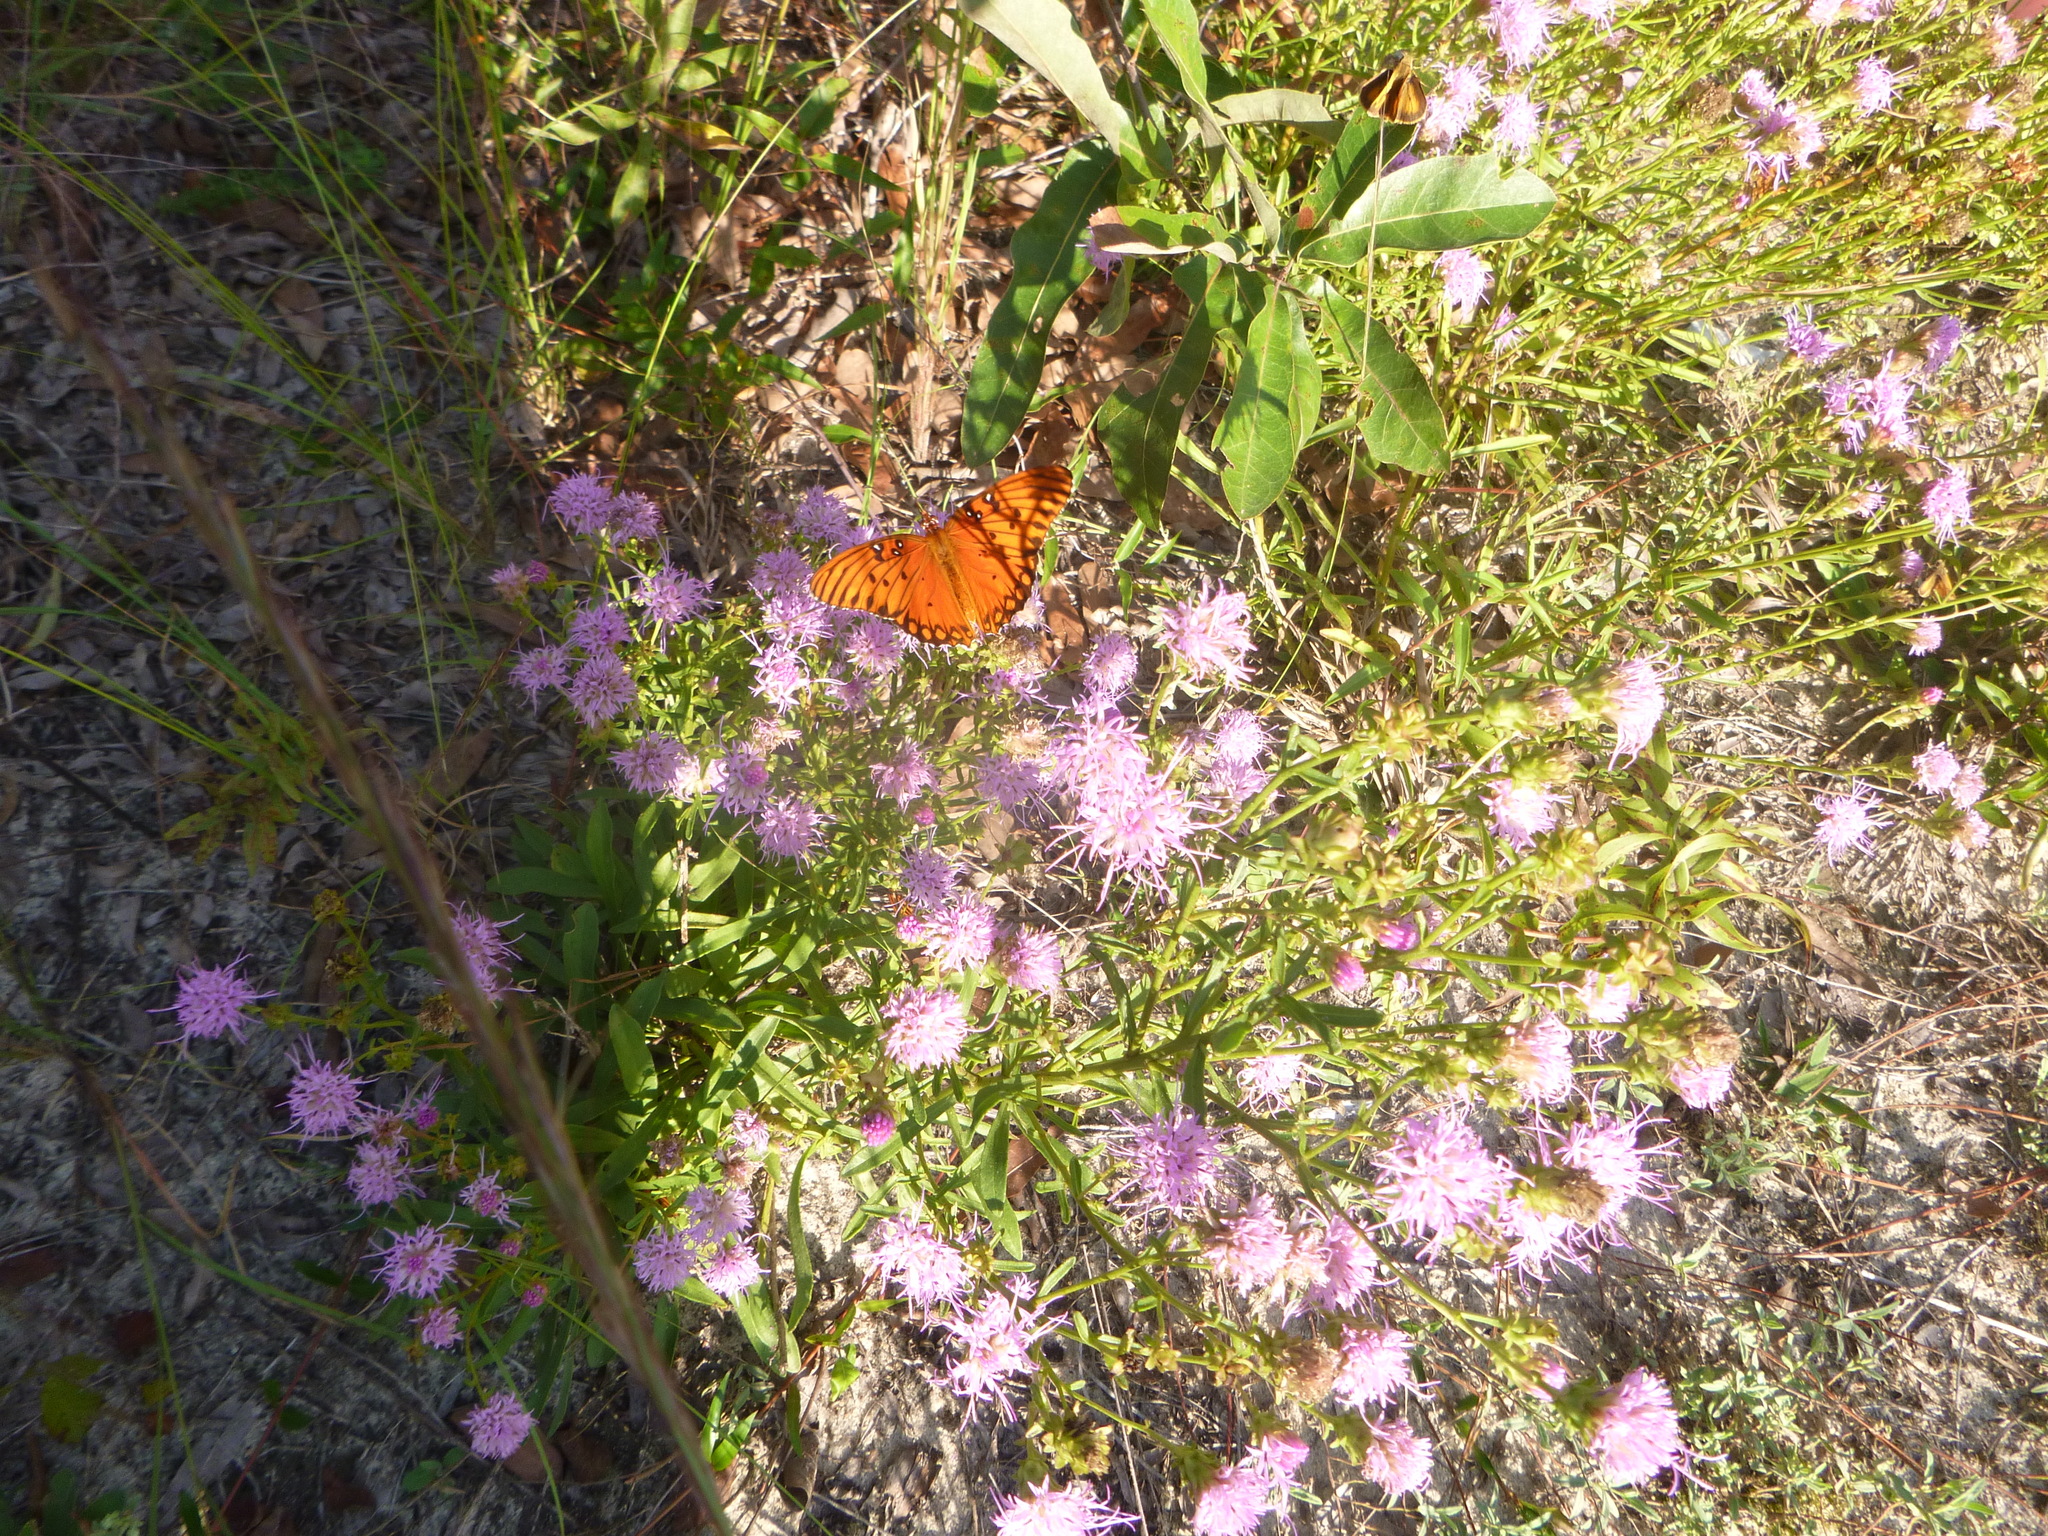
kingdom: Animalia
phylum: Arthropoda
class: Insecta
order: Lepidoptera
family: Nymphalidae
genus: Dione
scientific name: Dione vanillae
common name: Gulf fritillary
